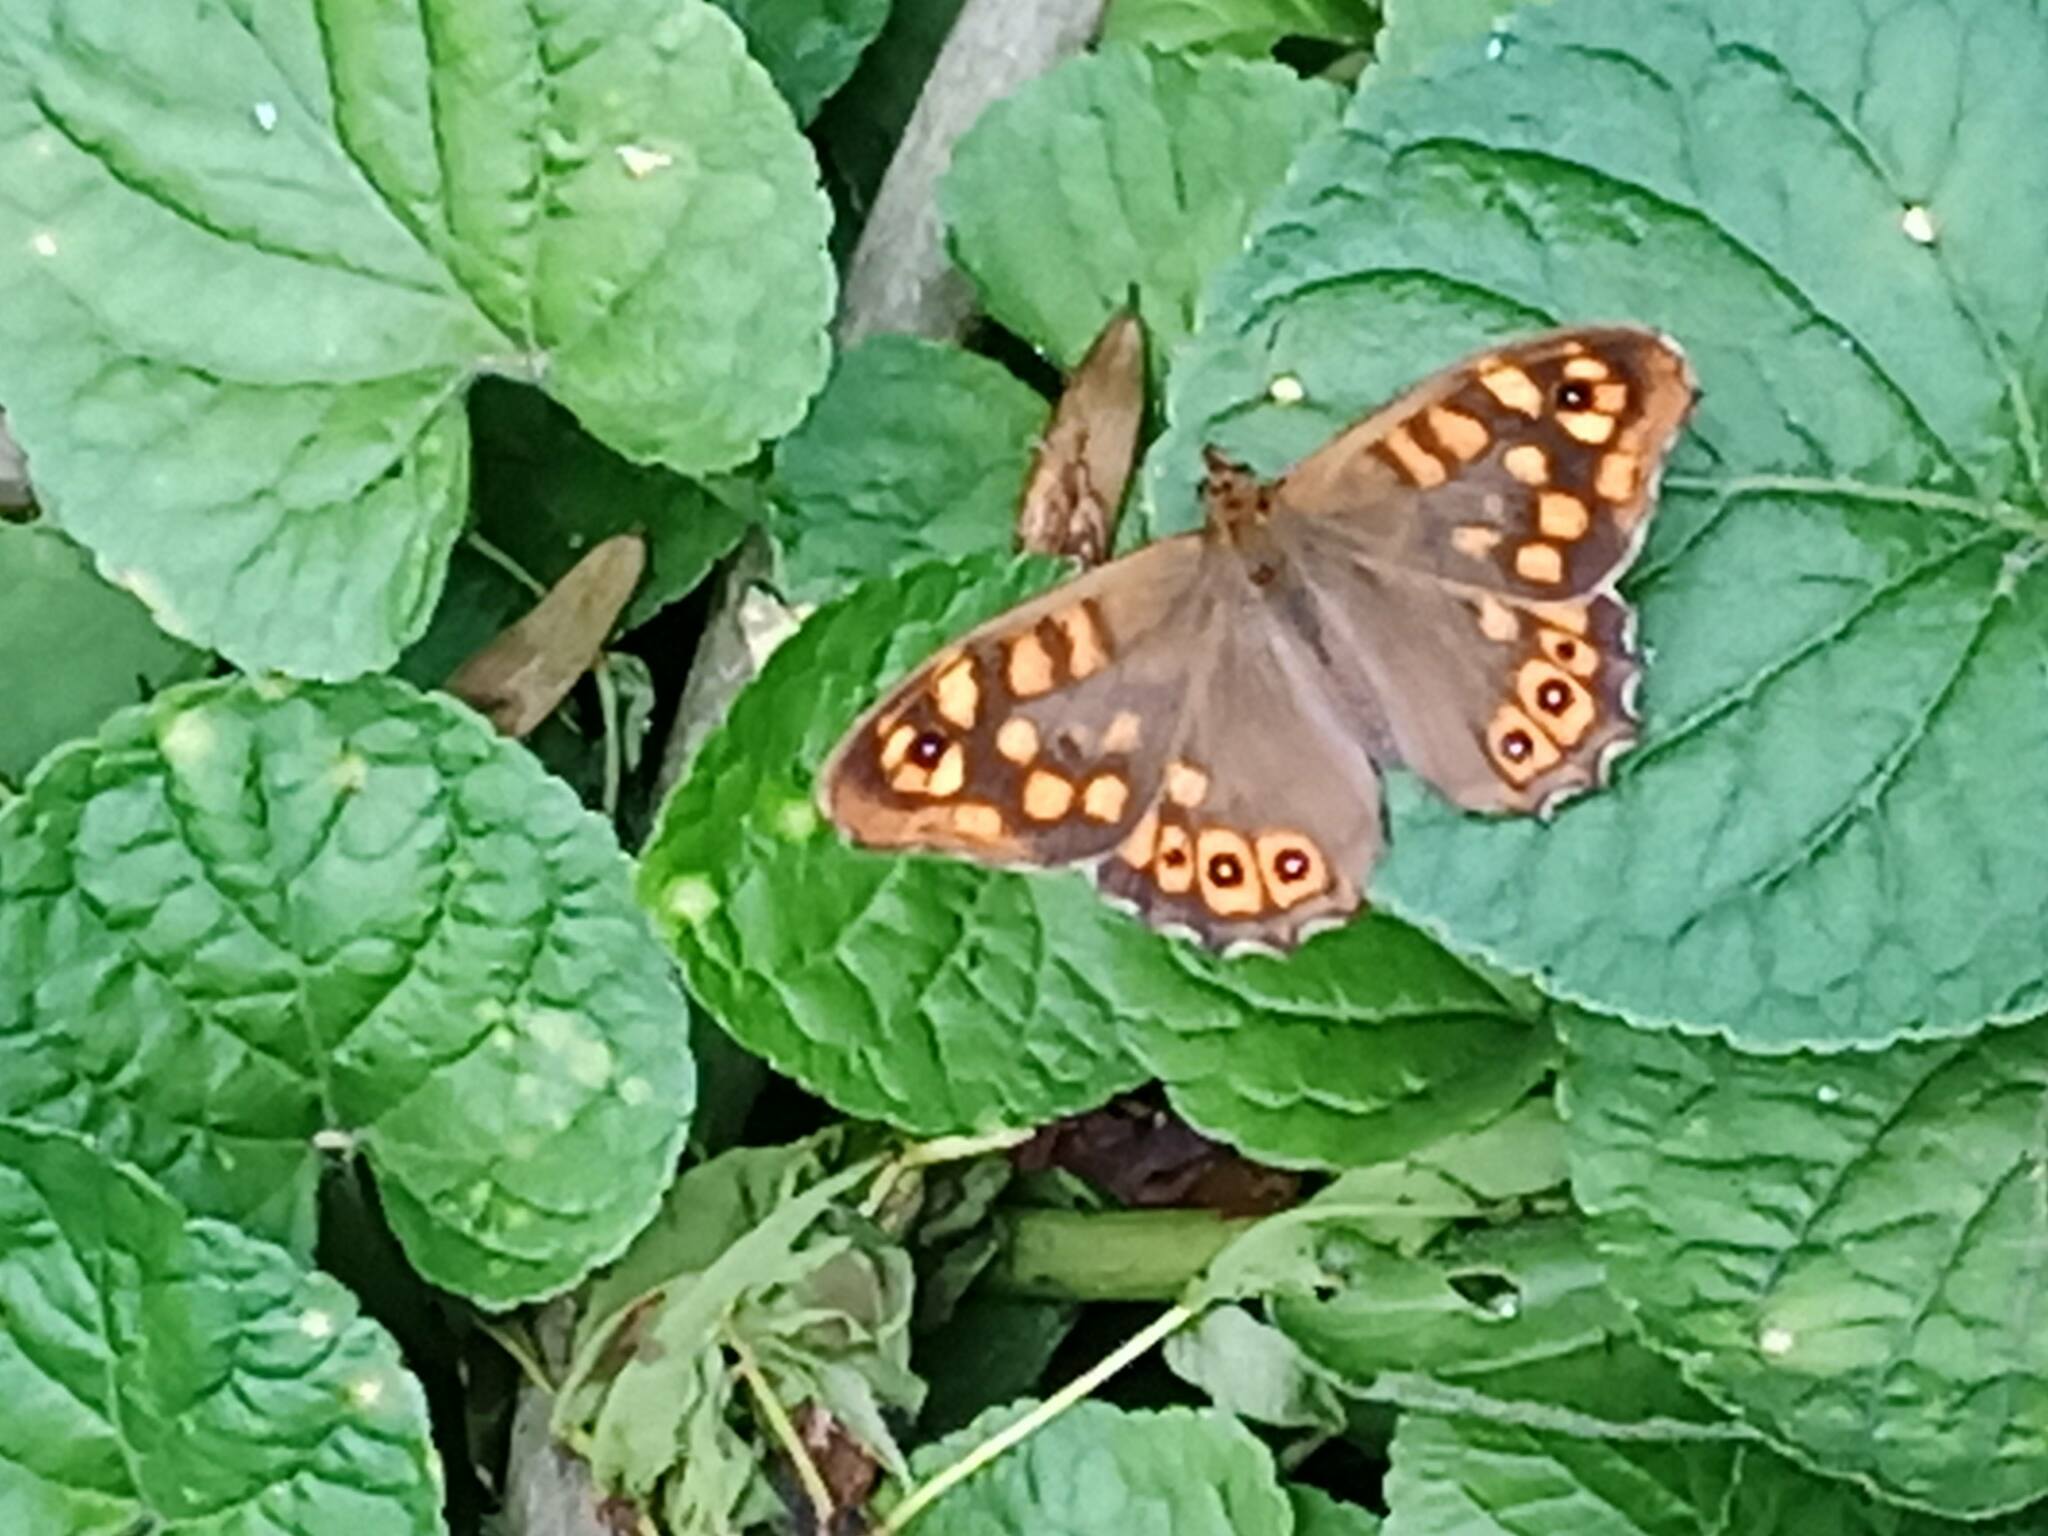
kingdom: Animalia
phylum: Arthropoda
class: Insecta
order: Lepidoptera
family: Nymphalidae
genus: Pararge
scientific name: Pararge aegeria
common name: Speckled wood
